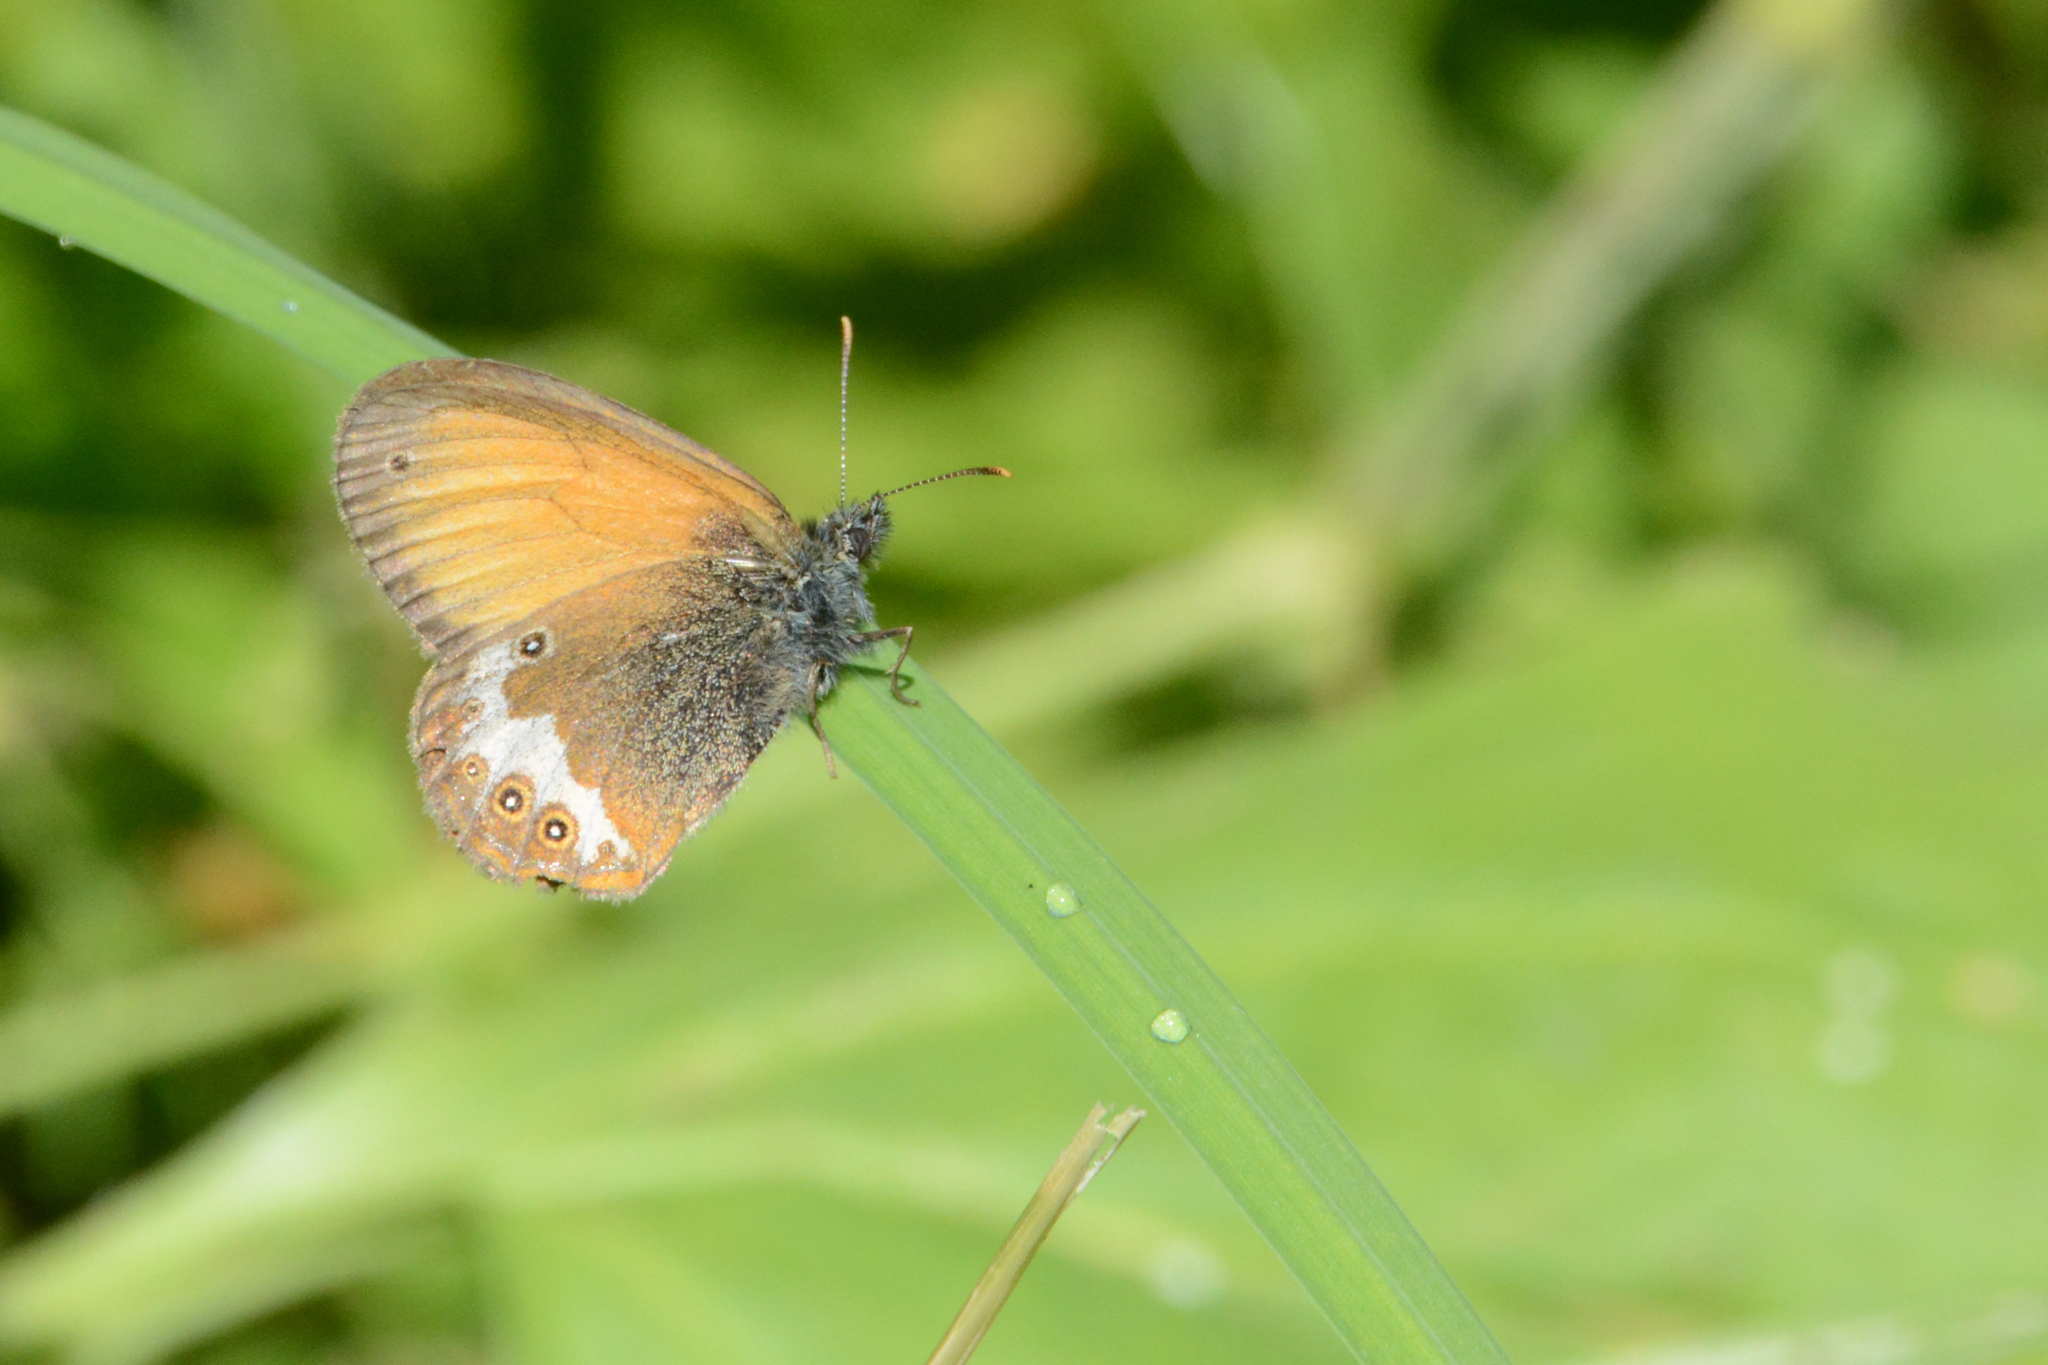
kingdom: Animalia
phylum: Arthropoda
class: Insecta
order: Lepidoptera
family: Nymphalidae
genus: Coenonympha
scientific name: Coenonympha arcania
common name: Pearly heath
